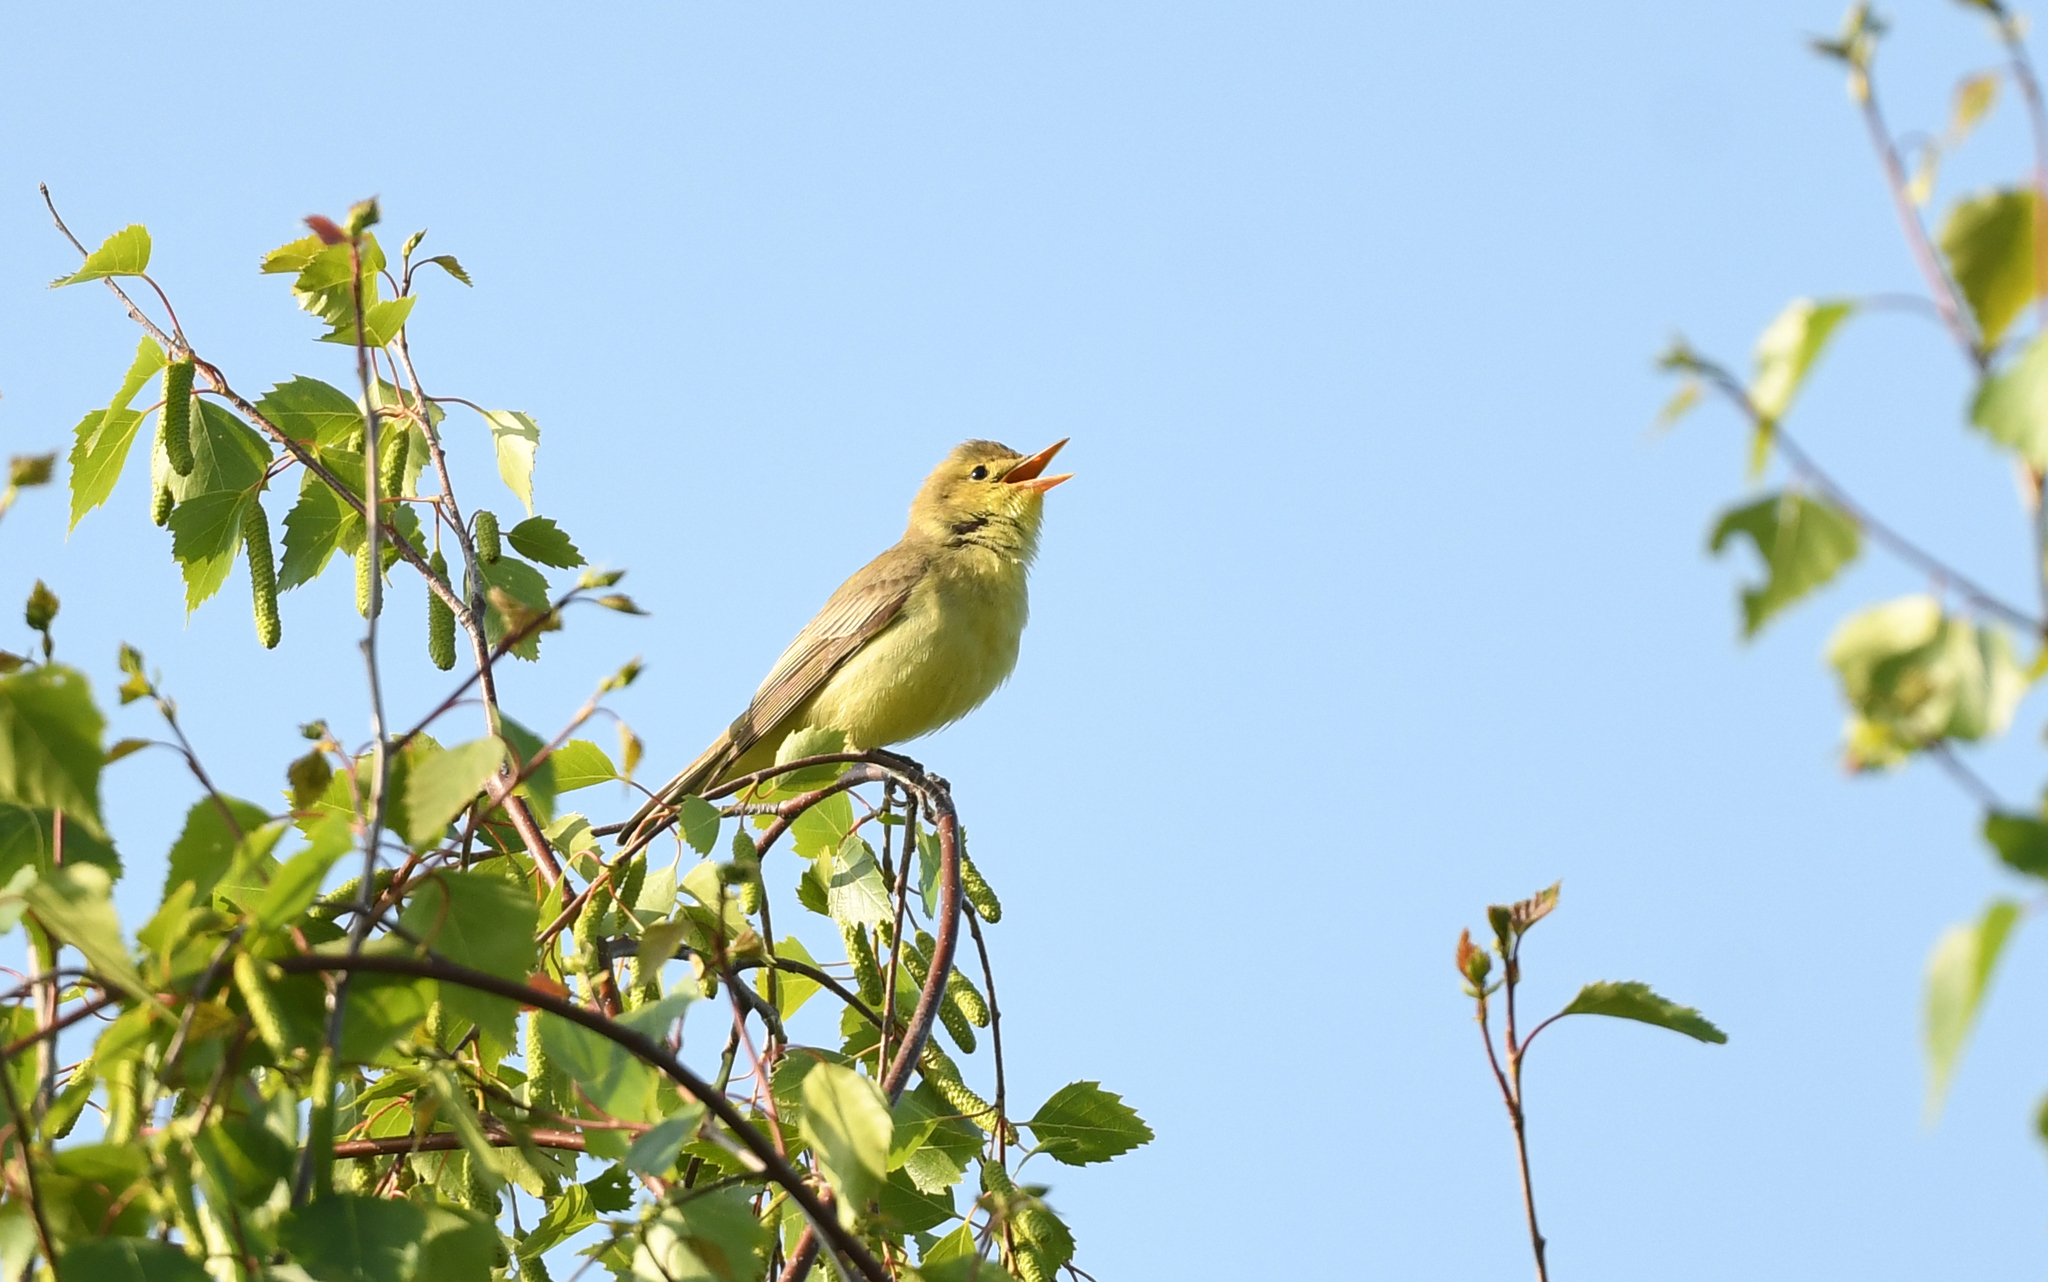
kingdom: Animalia
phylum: Chordata
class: Aves
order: Passeriformes
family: Acrocephalidae
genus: Hippolais
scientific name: Hippolais icterina
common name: Icterine warbler
